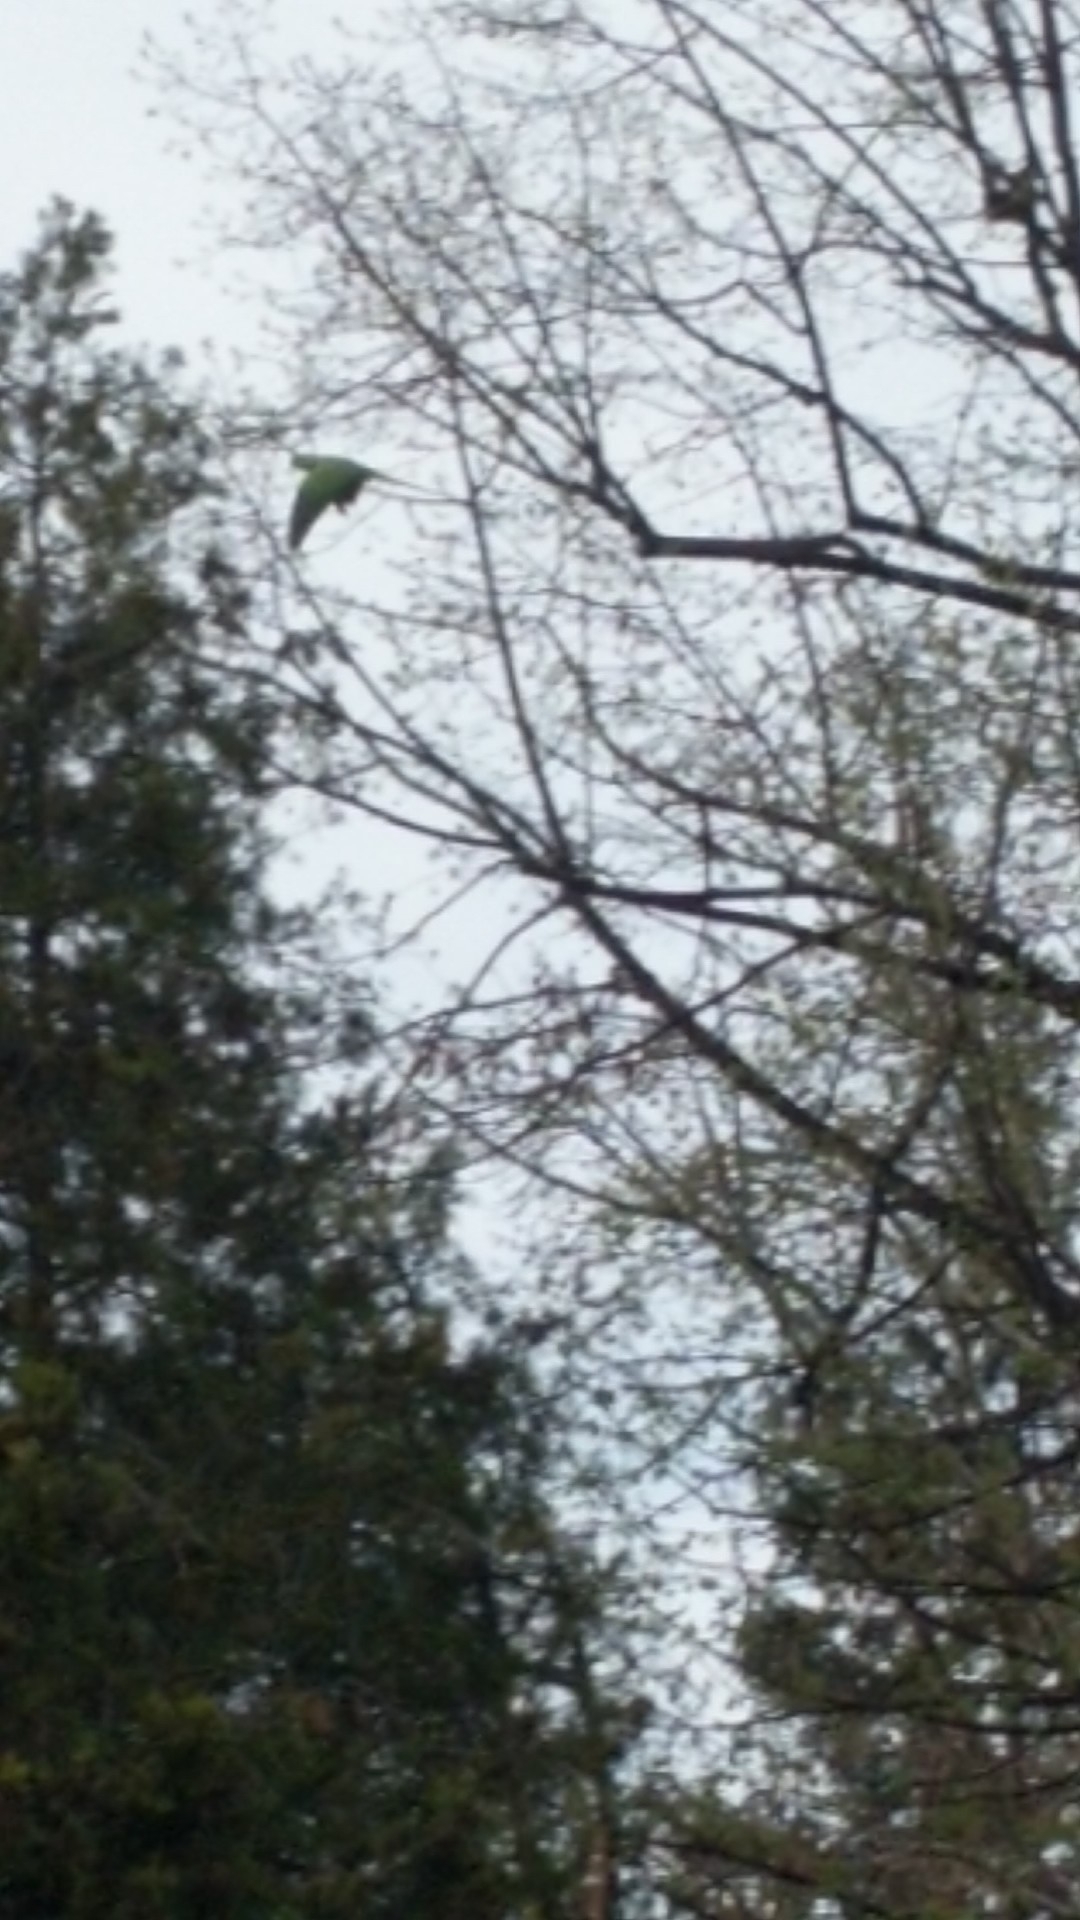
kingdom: Animalia
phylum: Chordata
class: Aves
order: Psittaciformes
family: Psittacidae
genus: Psittacula
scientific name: Psittacula krameri
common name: Rose-ringed parakeet
